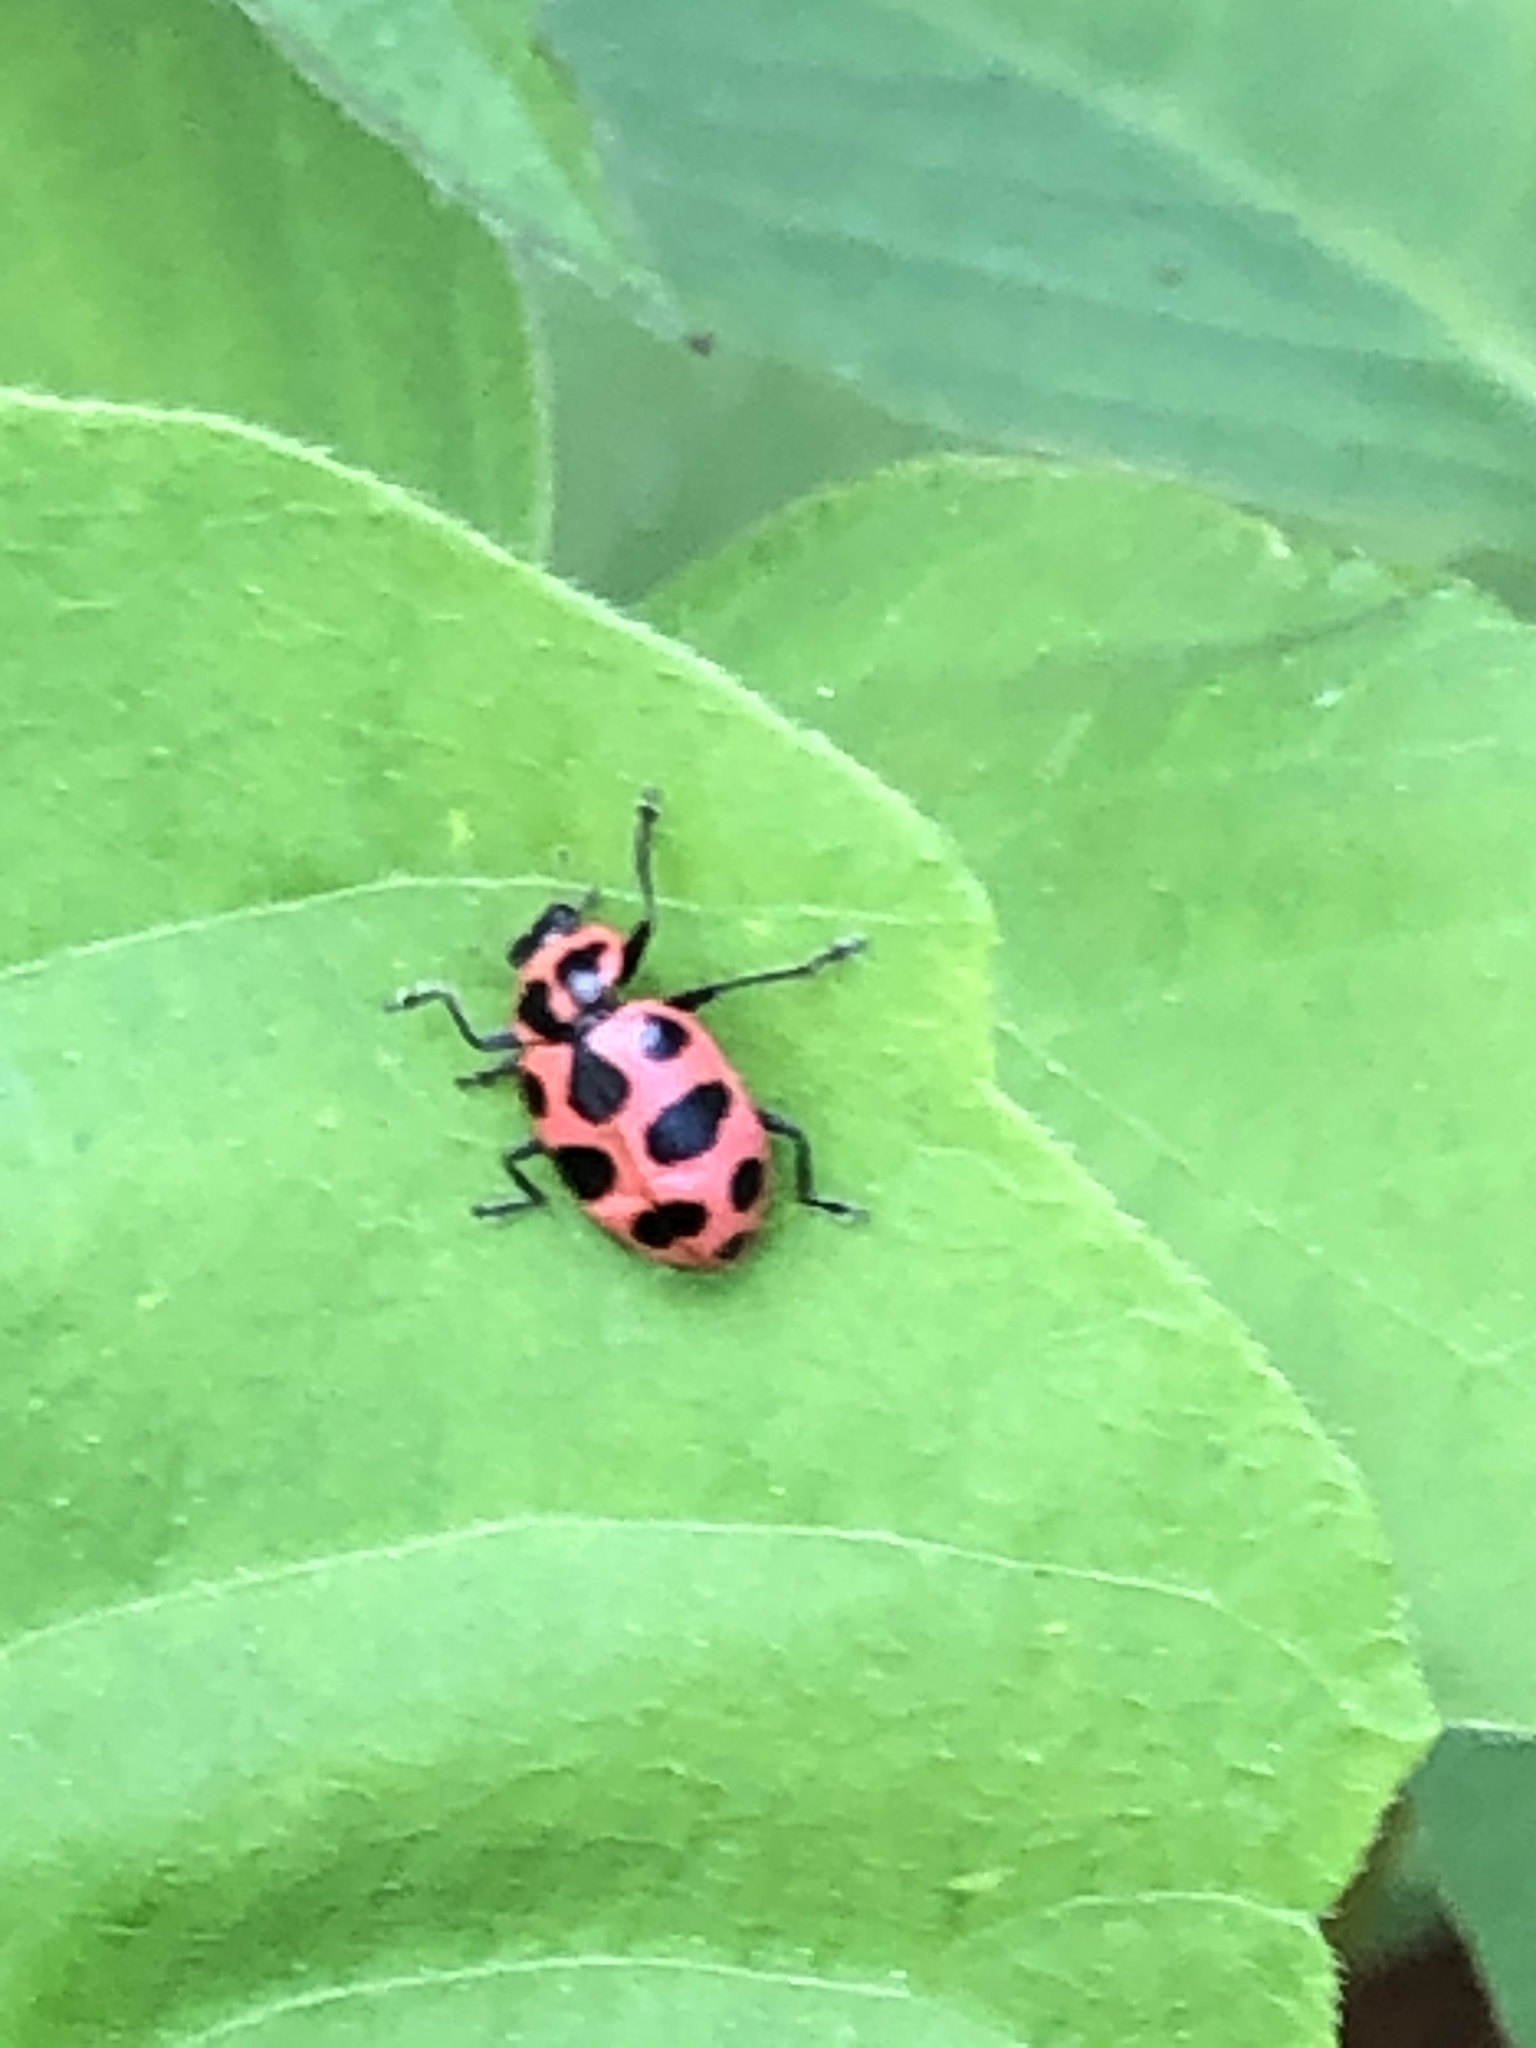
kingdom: Animalia
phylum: Arthropoda
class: Insecta
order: Coleoptera
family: Coccinellidae
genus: Coleomegilla
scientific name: Coleomegilla maculata
